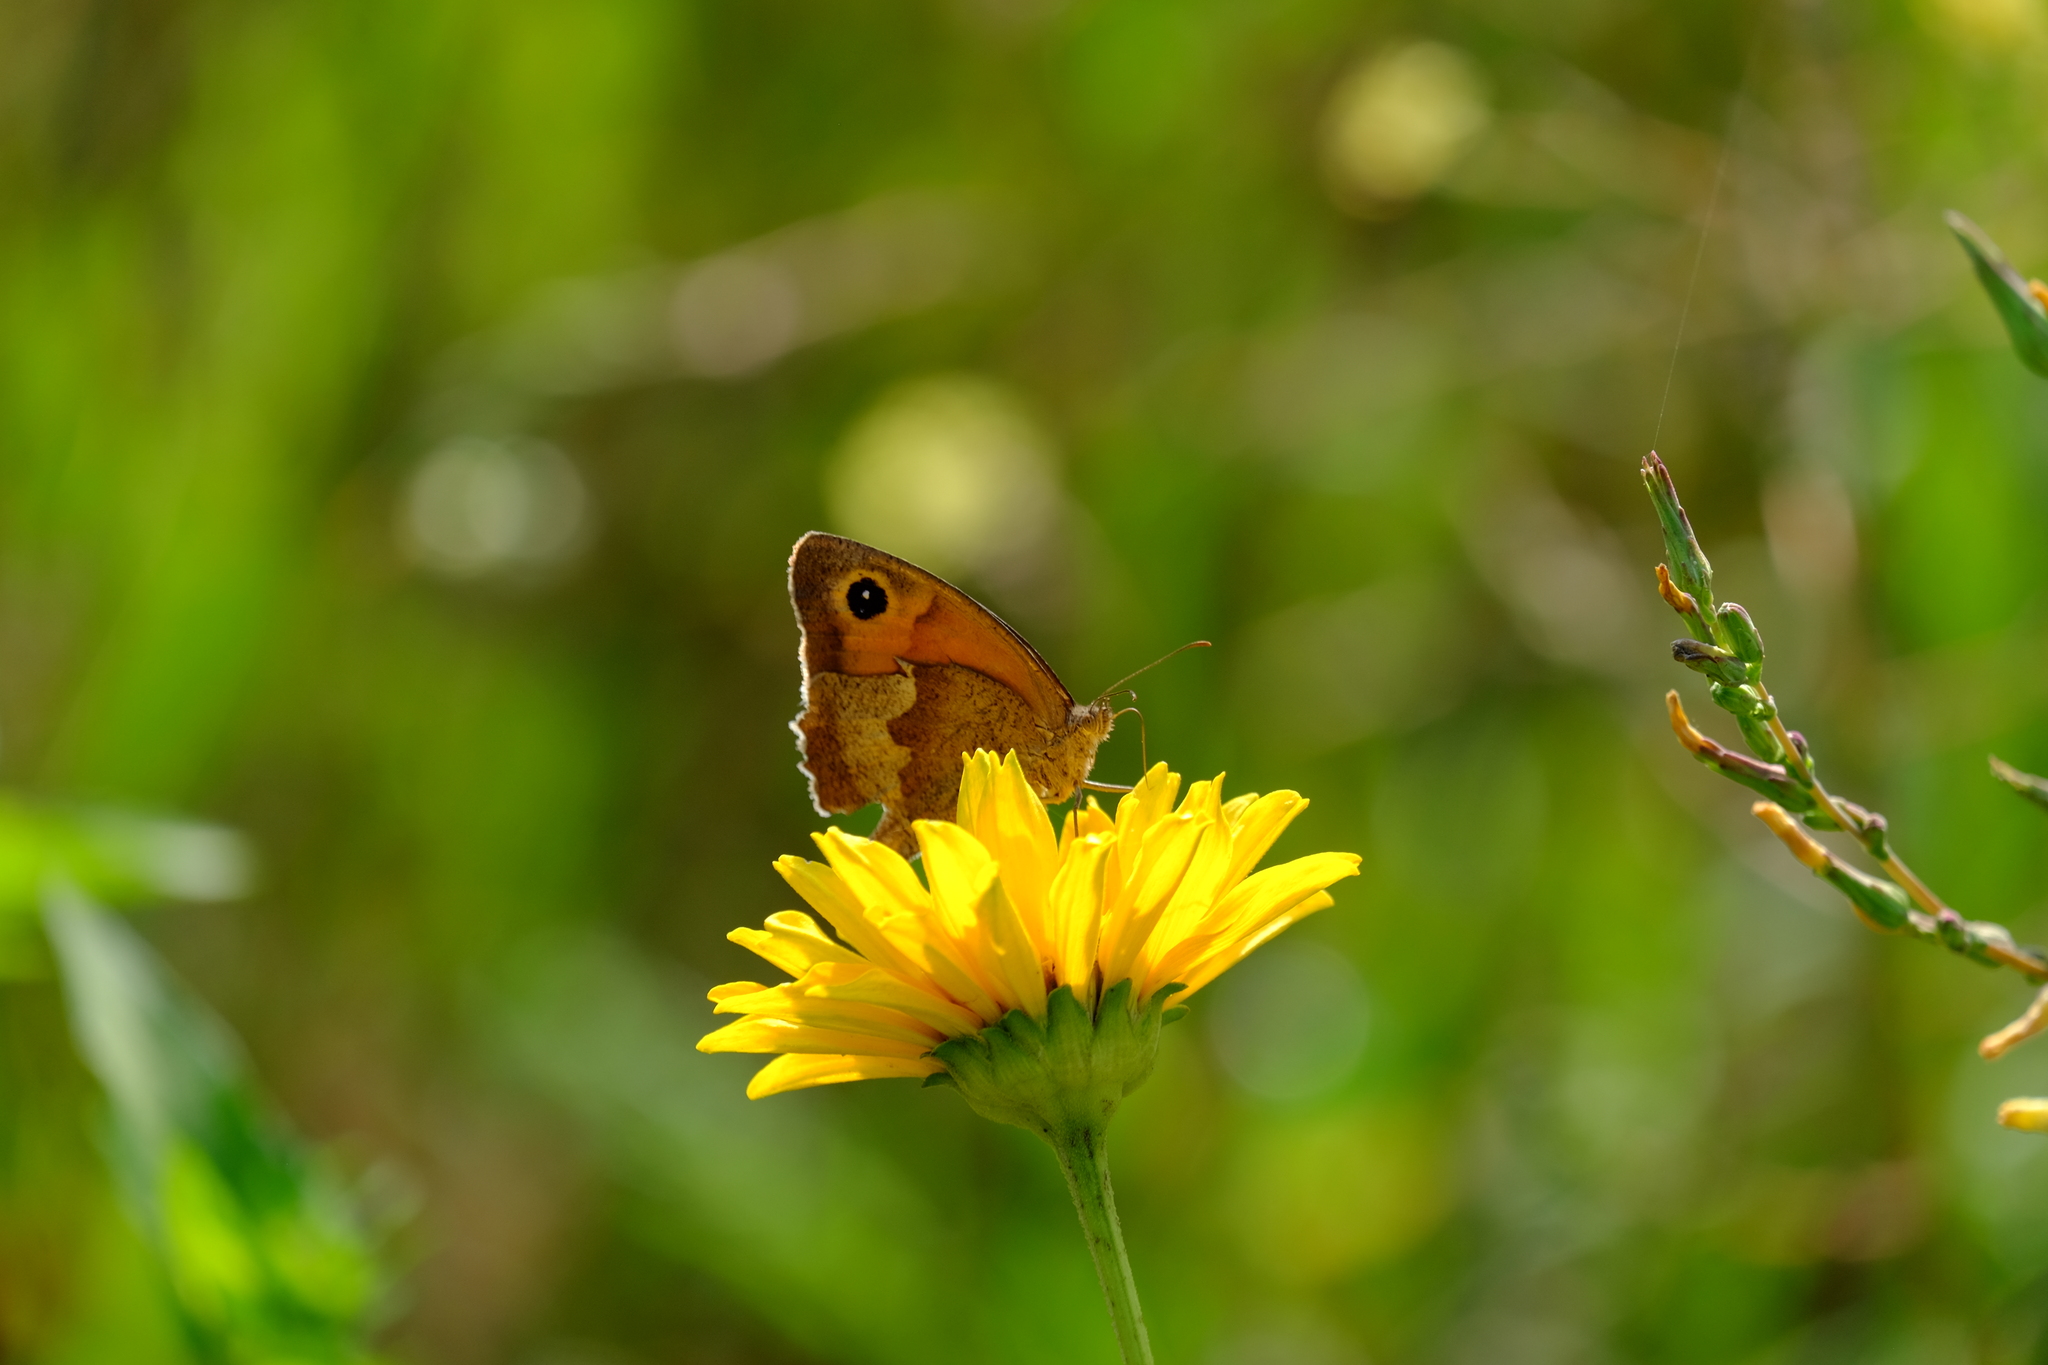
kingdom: Animalia
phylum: Arthropoda
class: Insecta
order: Lepidoptera
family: Nymphalidae
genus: Maniola
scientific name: Maniola jurtina
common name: Meadow brown
